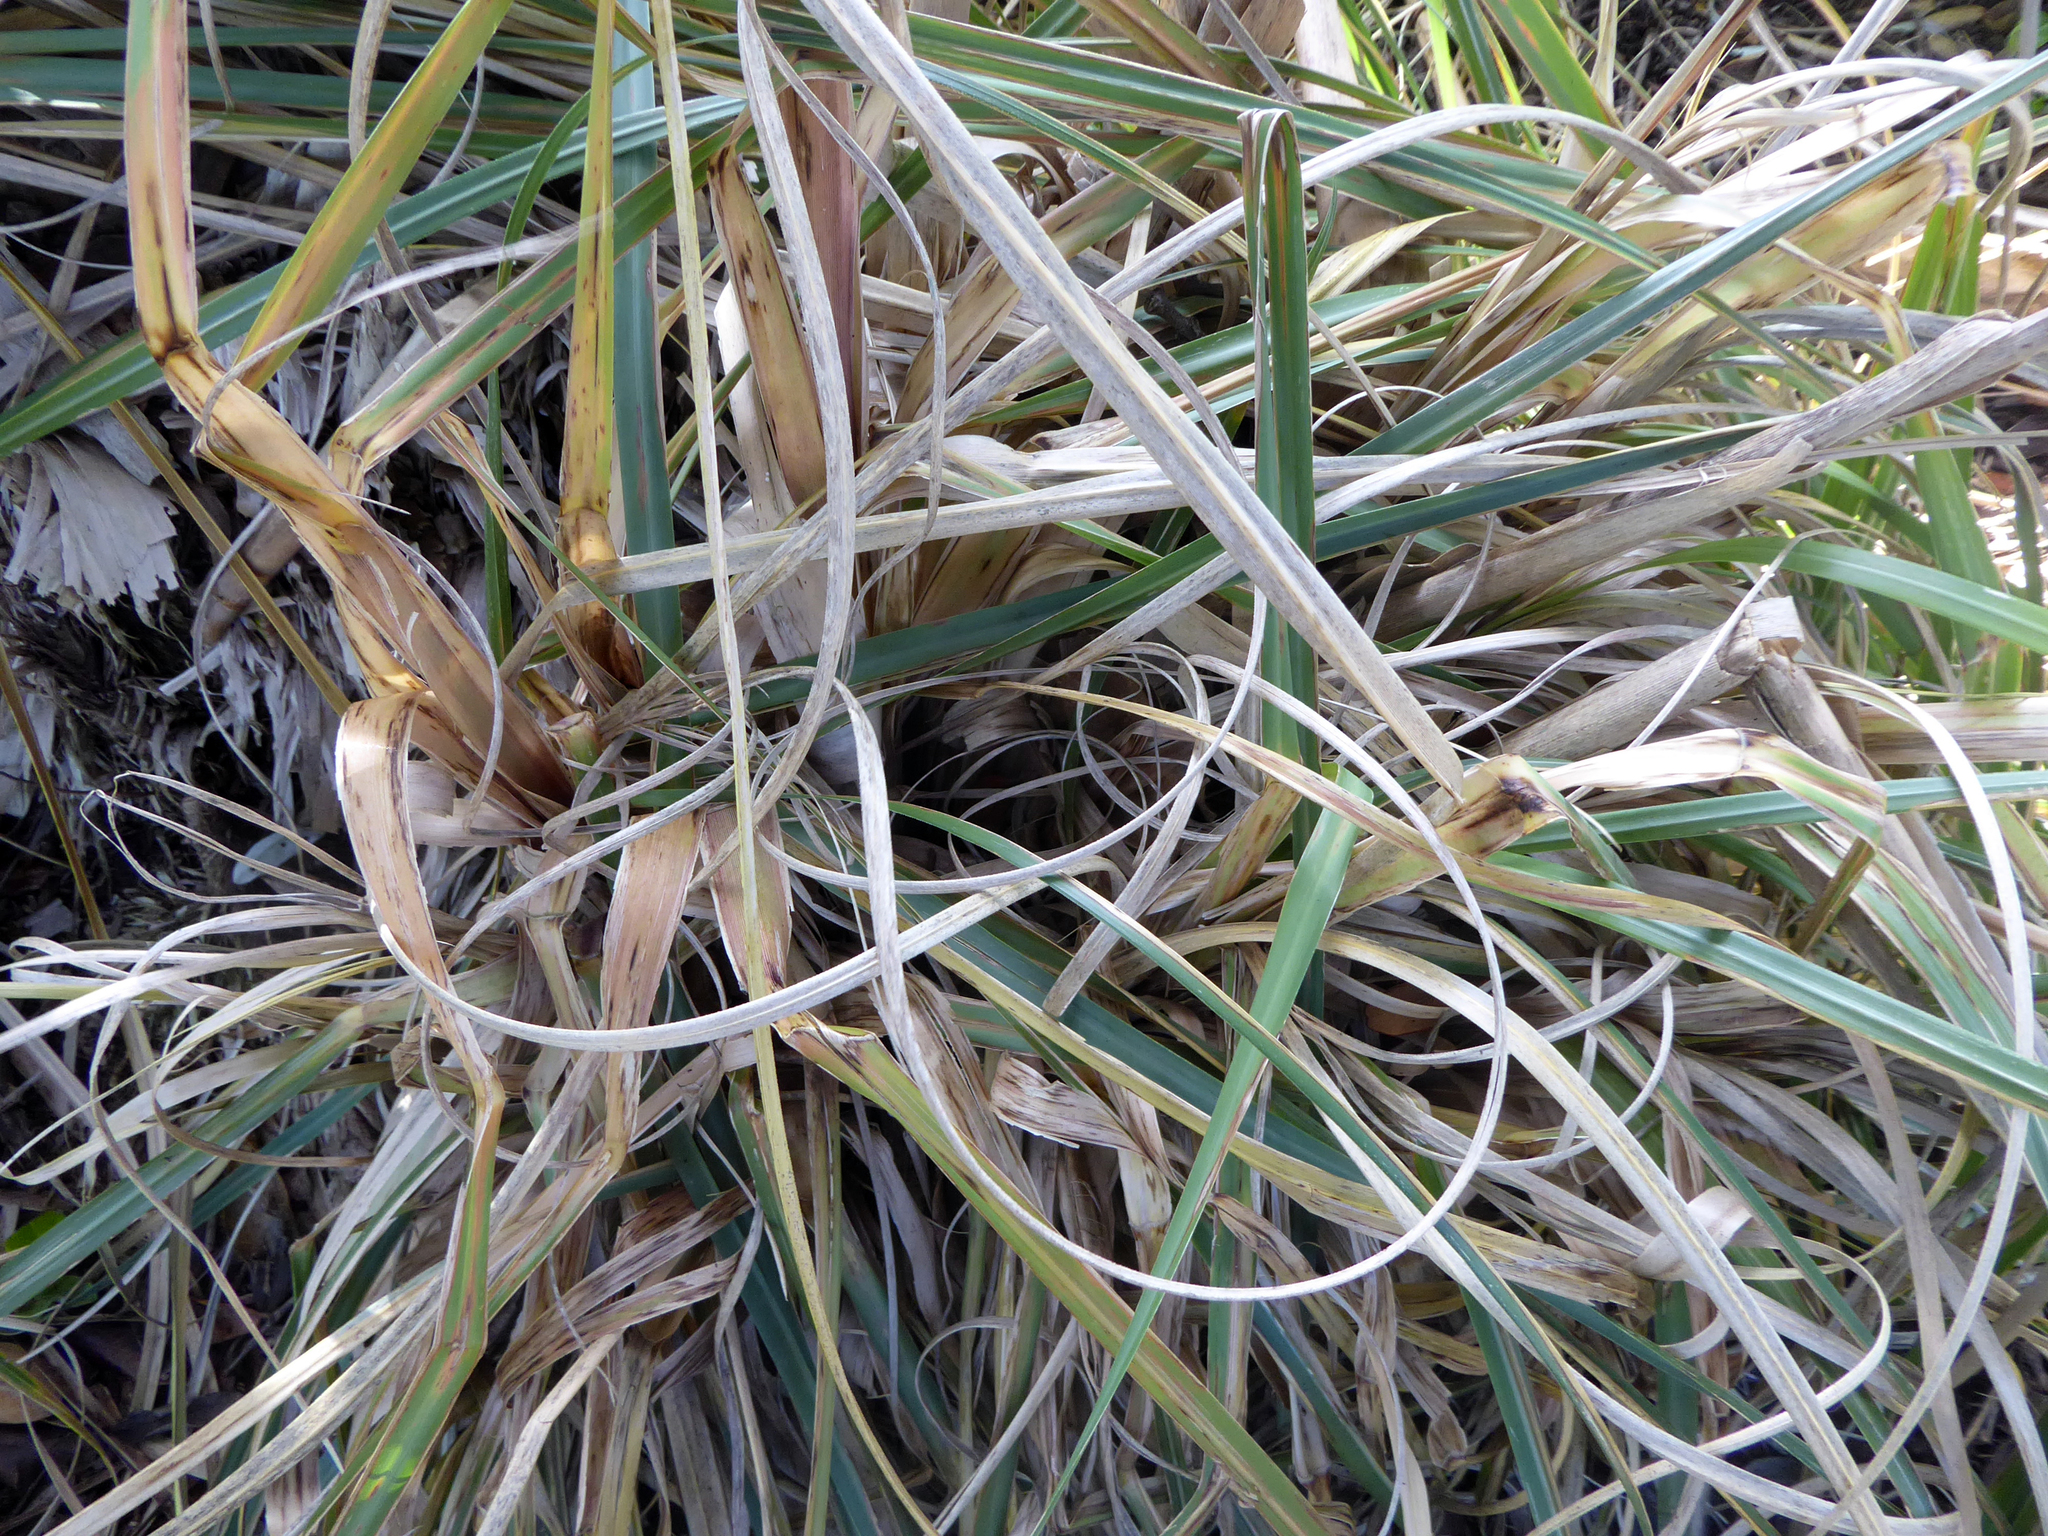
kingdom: Plantae
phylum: Tracheophyta
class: Liliopsida
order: Poales
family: Poaceae
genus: Cortaderia
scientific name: Cortaderia selloana
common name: Uruguayan pampas grass
